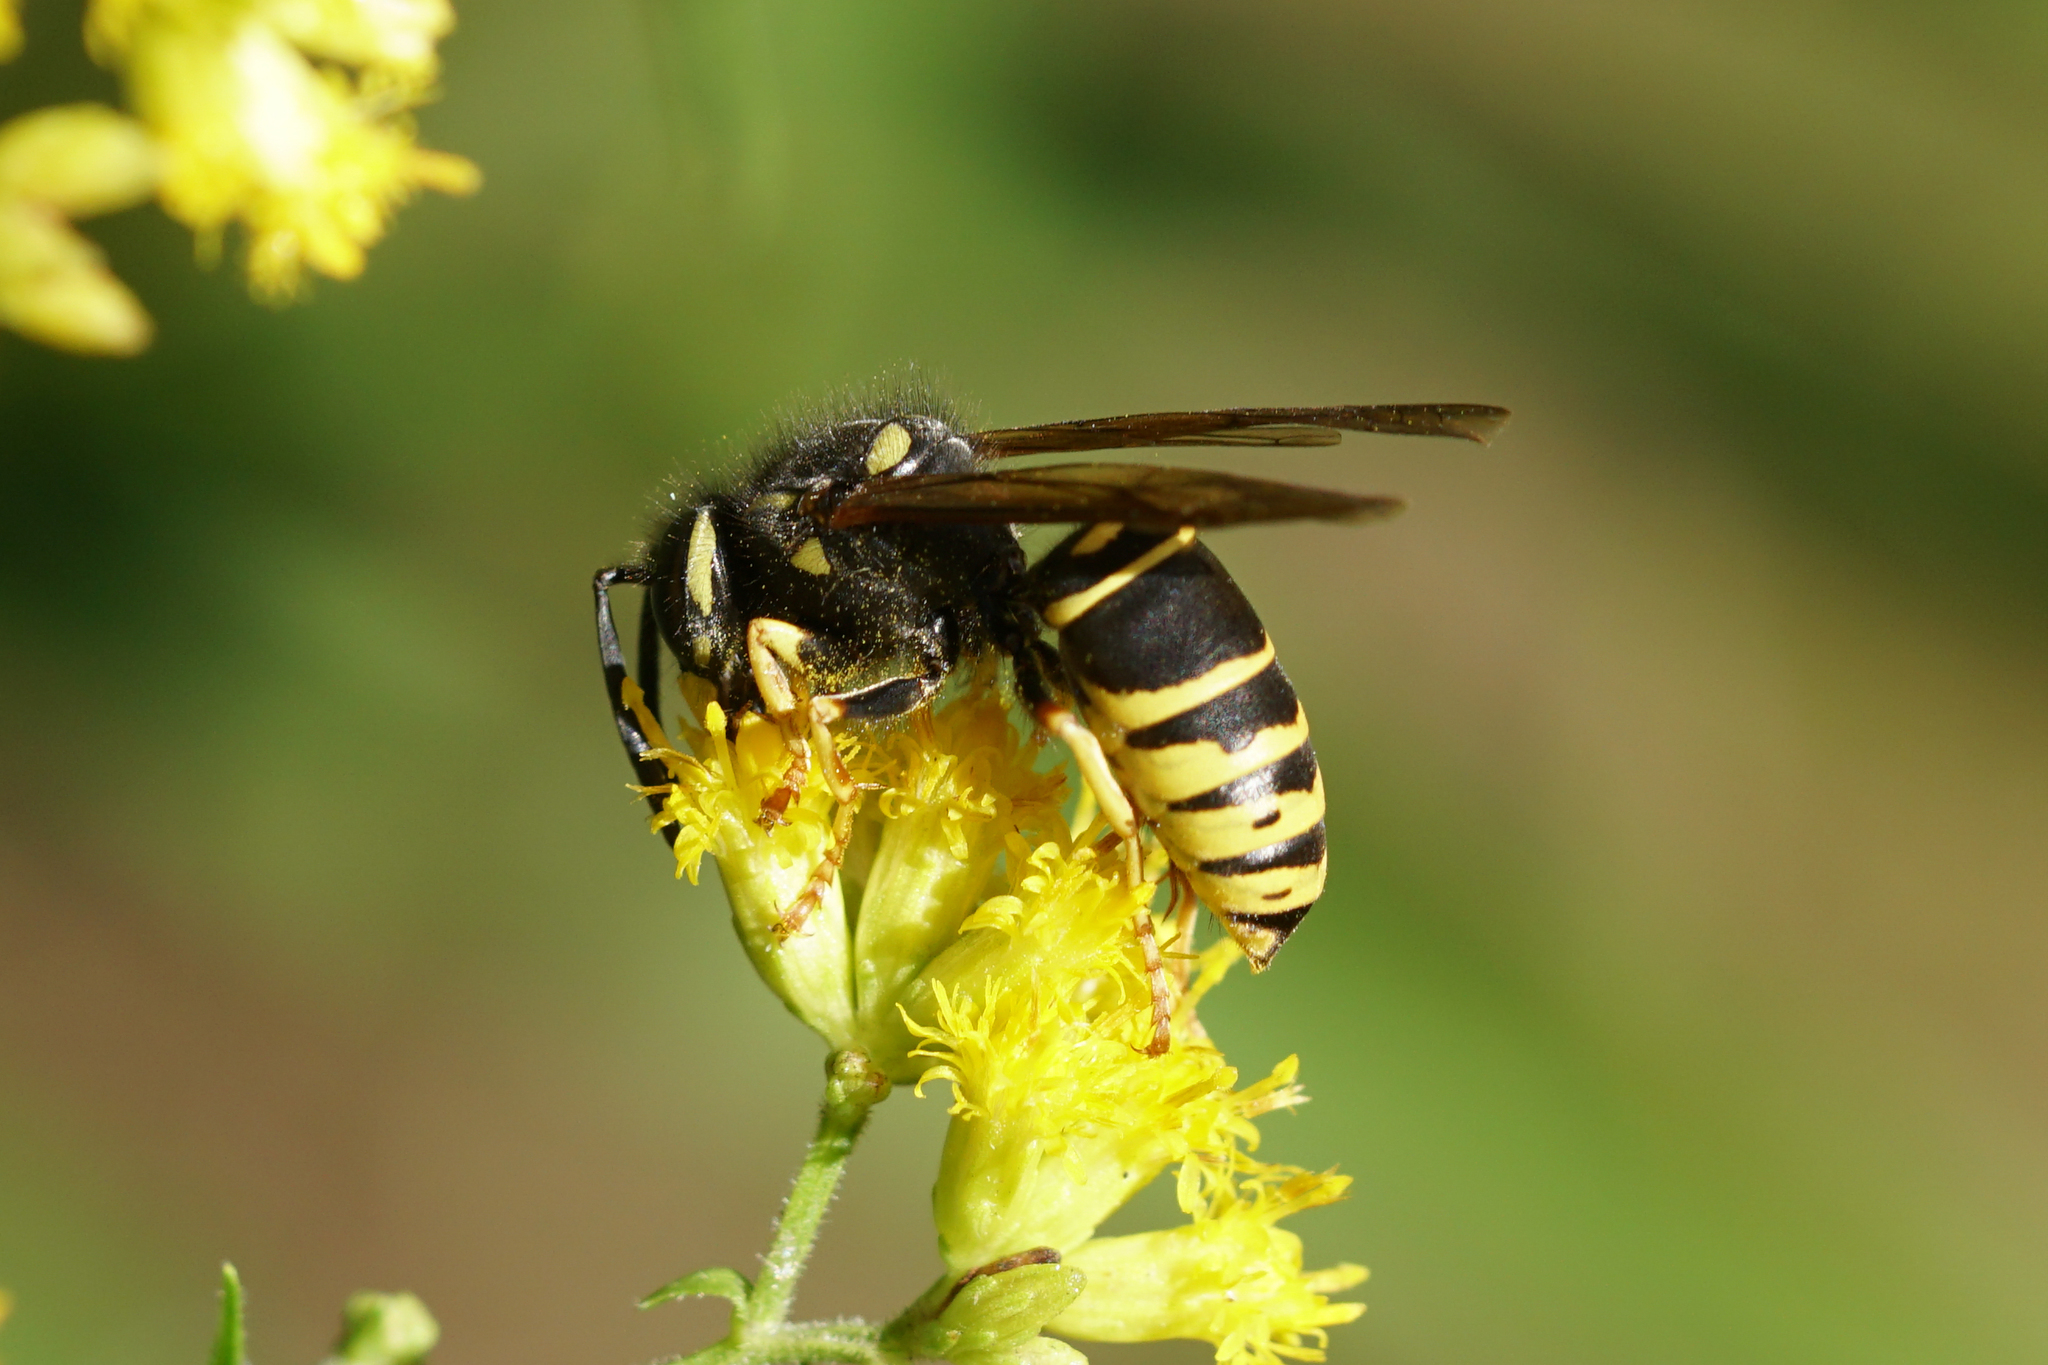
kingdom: Animalia
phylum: Arthropoda
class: Insecta
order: Hymenoptera
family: Vespidae
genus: Vespula
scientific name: Vespula vidua
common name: Widow yellowjacket
